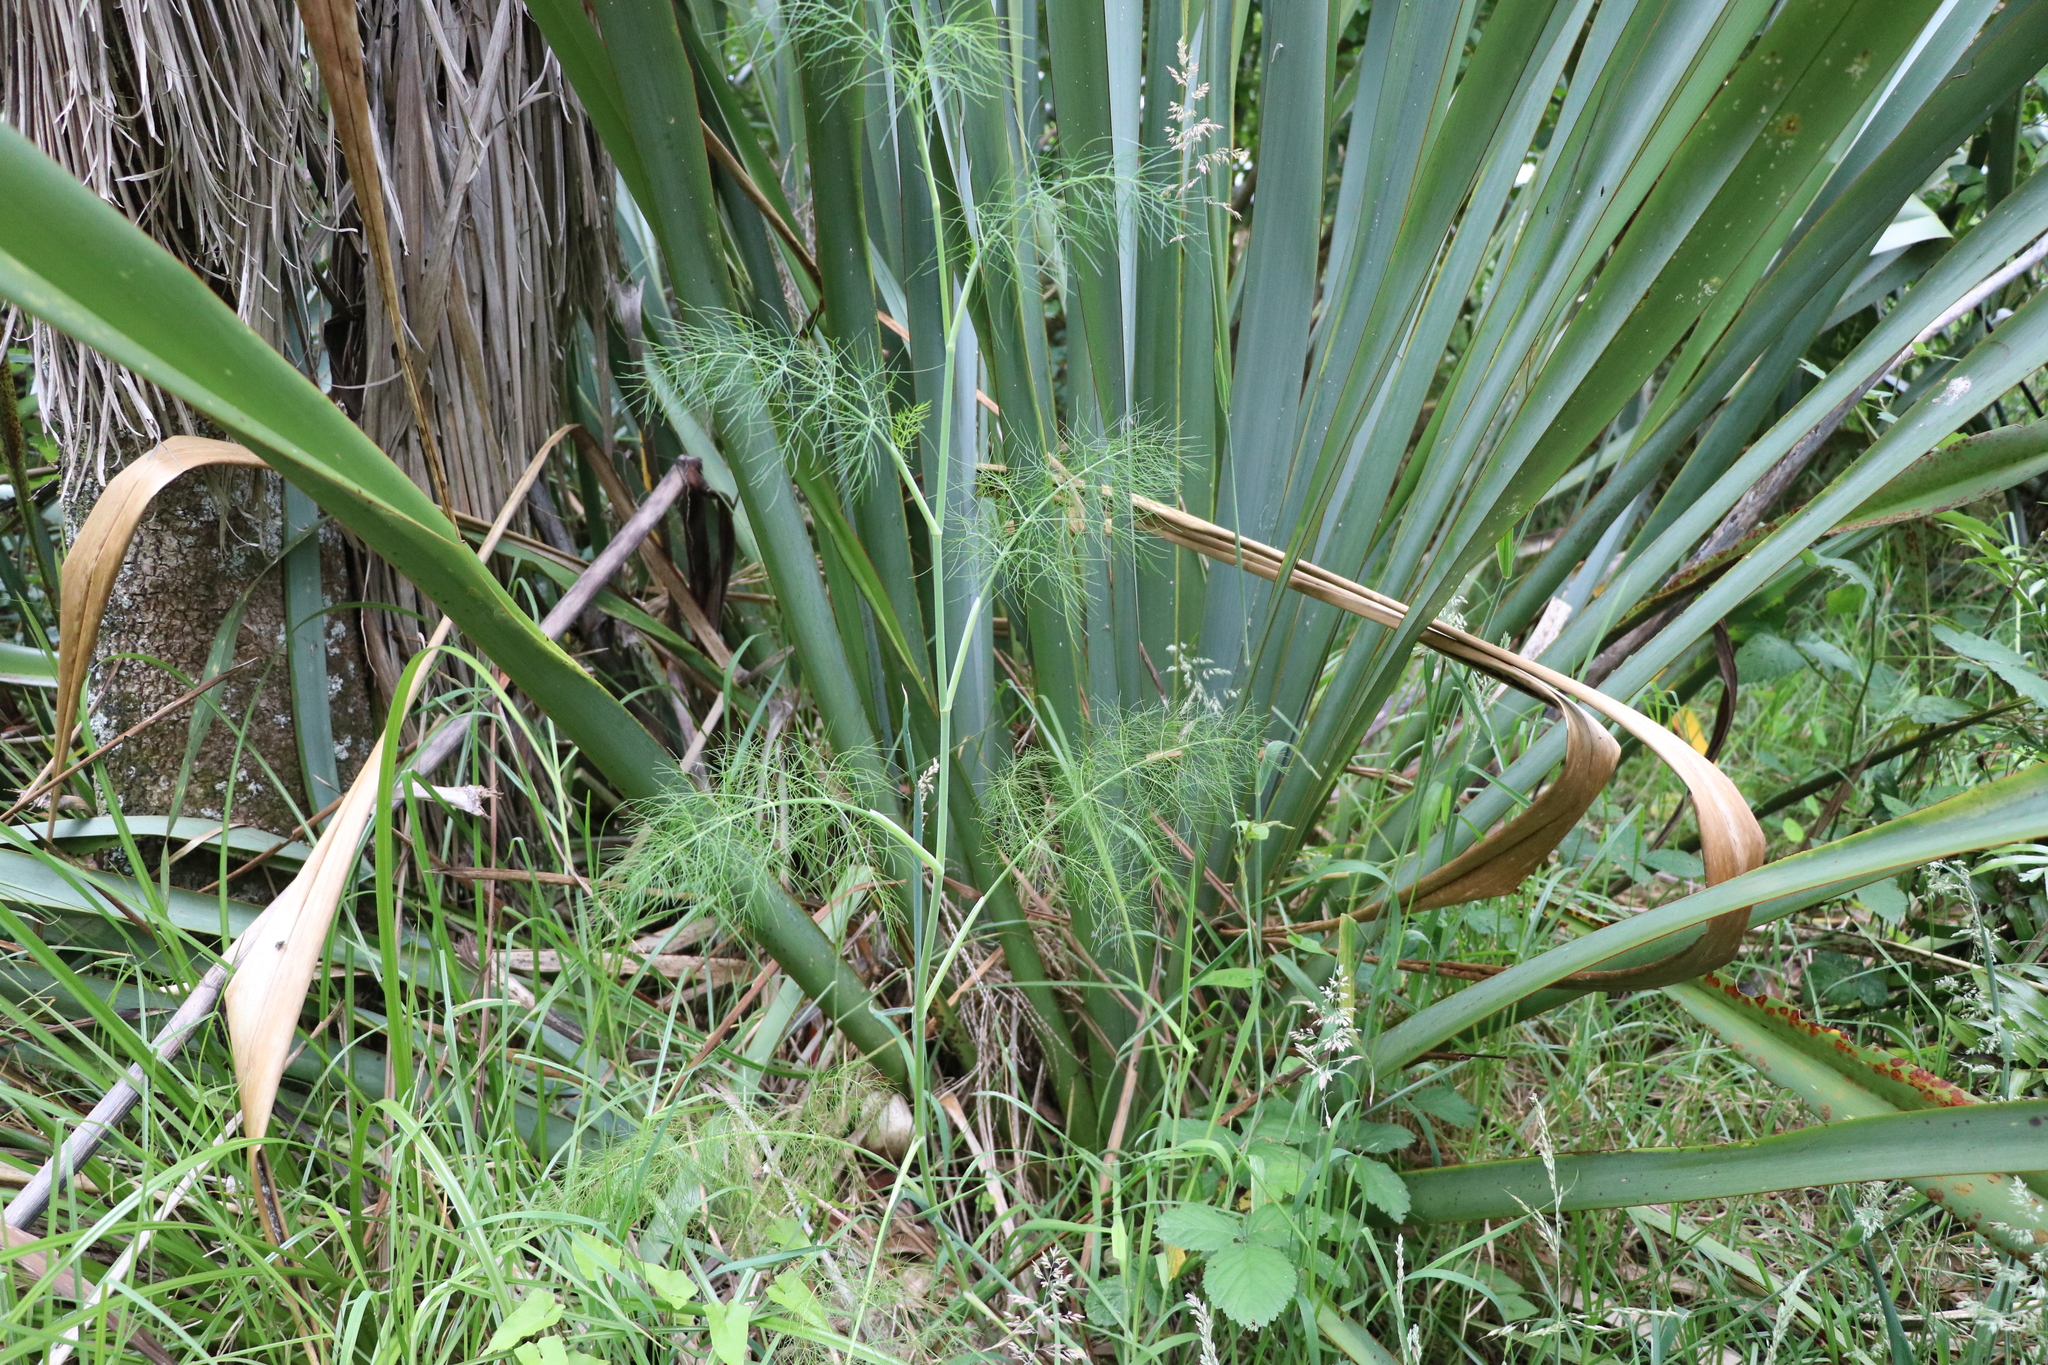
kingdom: Plantae
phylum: Tracheophyta
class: Magnoliopsida
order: Apiales
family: Apiaceae
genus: Foeniculum
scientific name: Foeniculum vulgare
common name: Fennel
